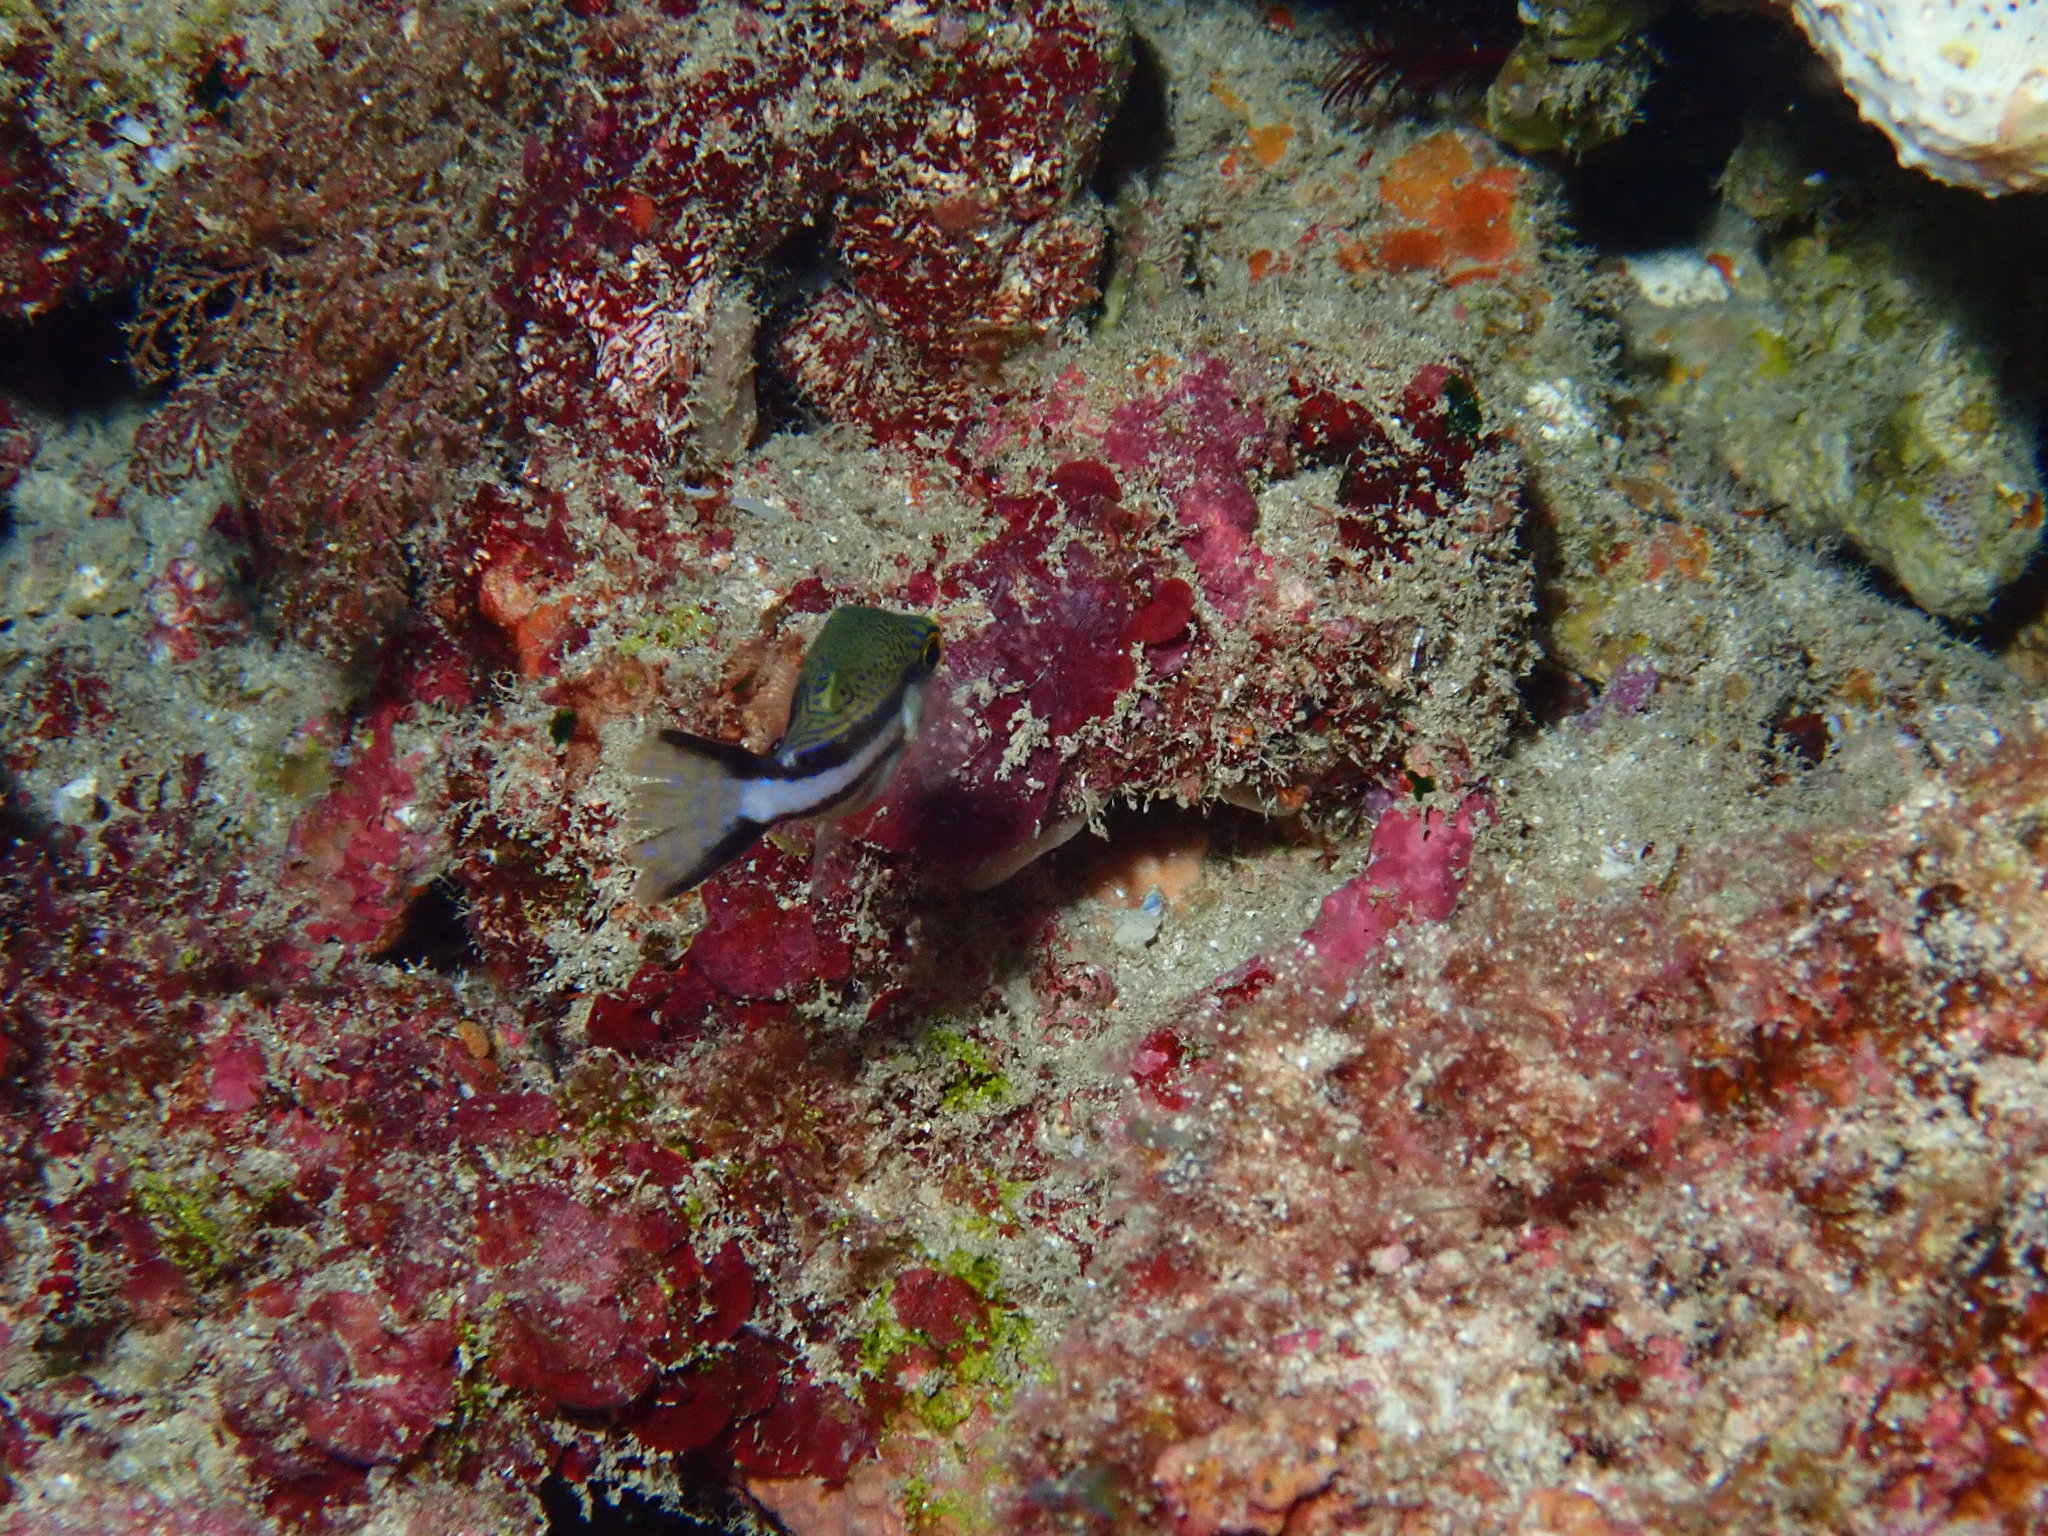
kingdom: Animalia
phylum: Chordata
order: Tetraodontiformes
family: Tetraodontidae
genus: Canthigaster
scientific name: Canthigaster callisterna
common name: Clown toado
